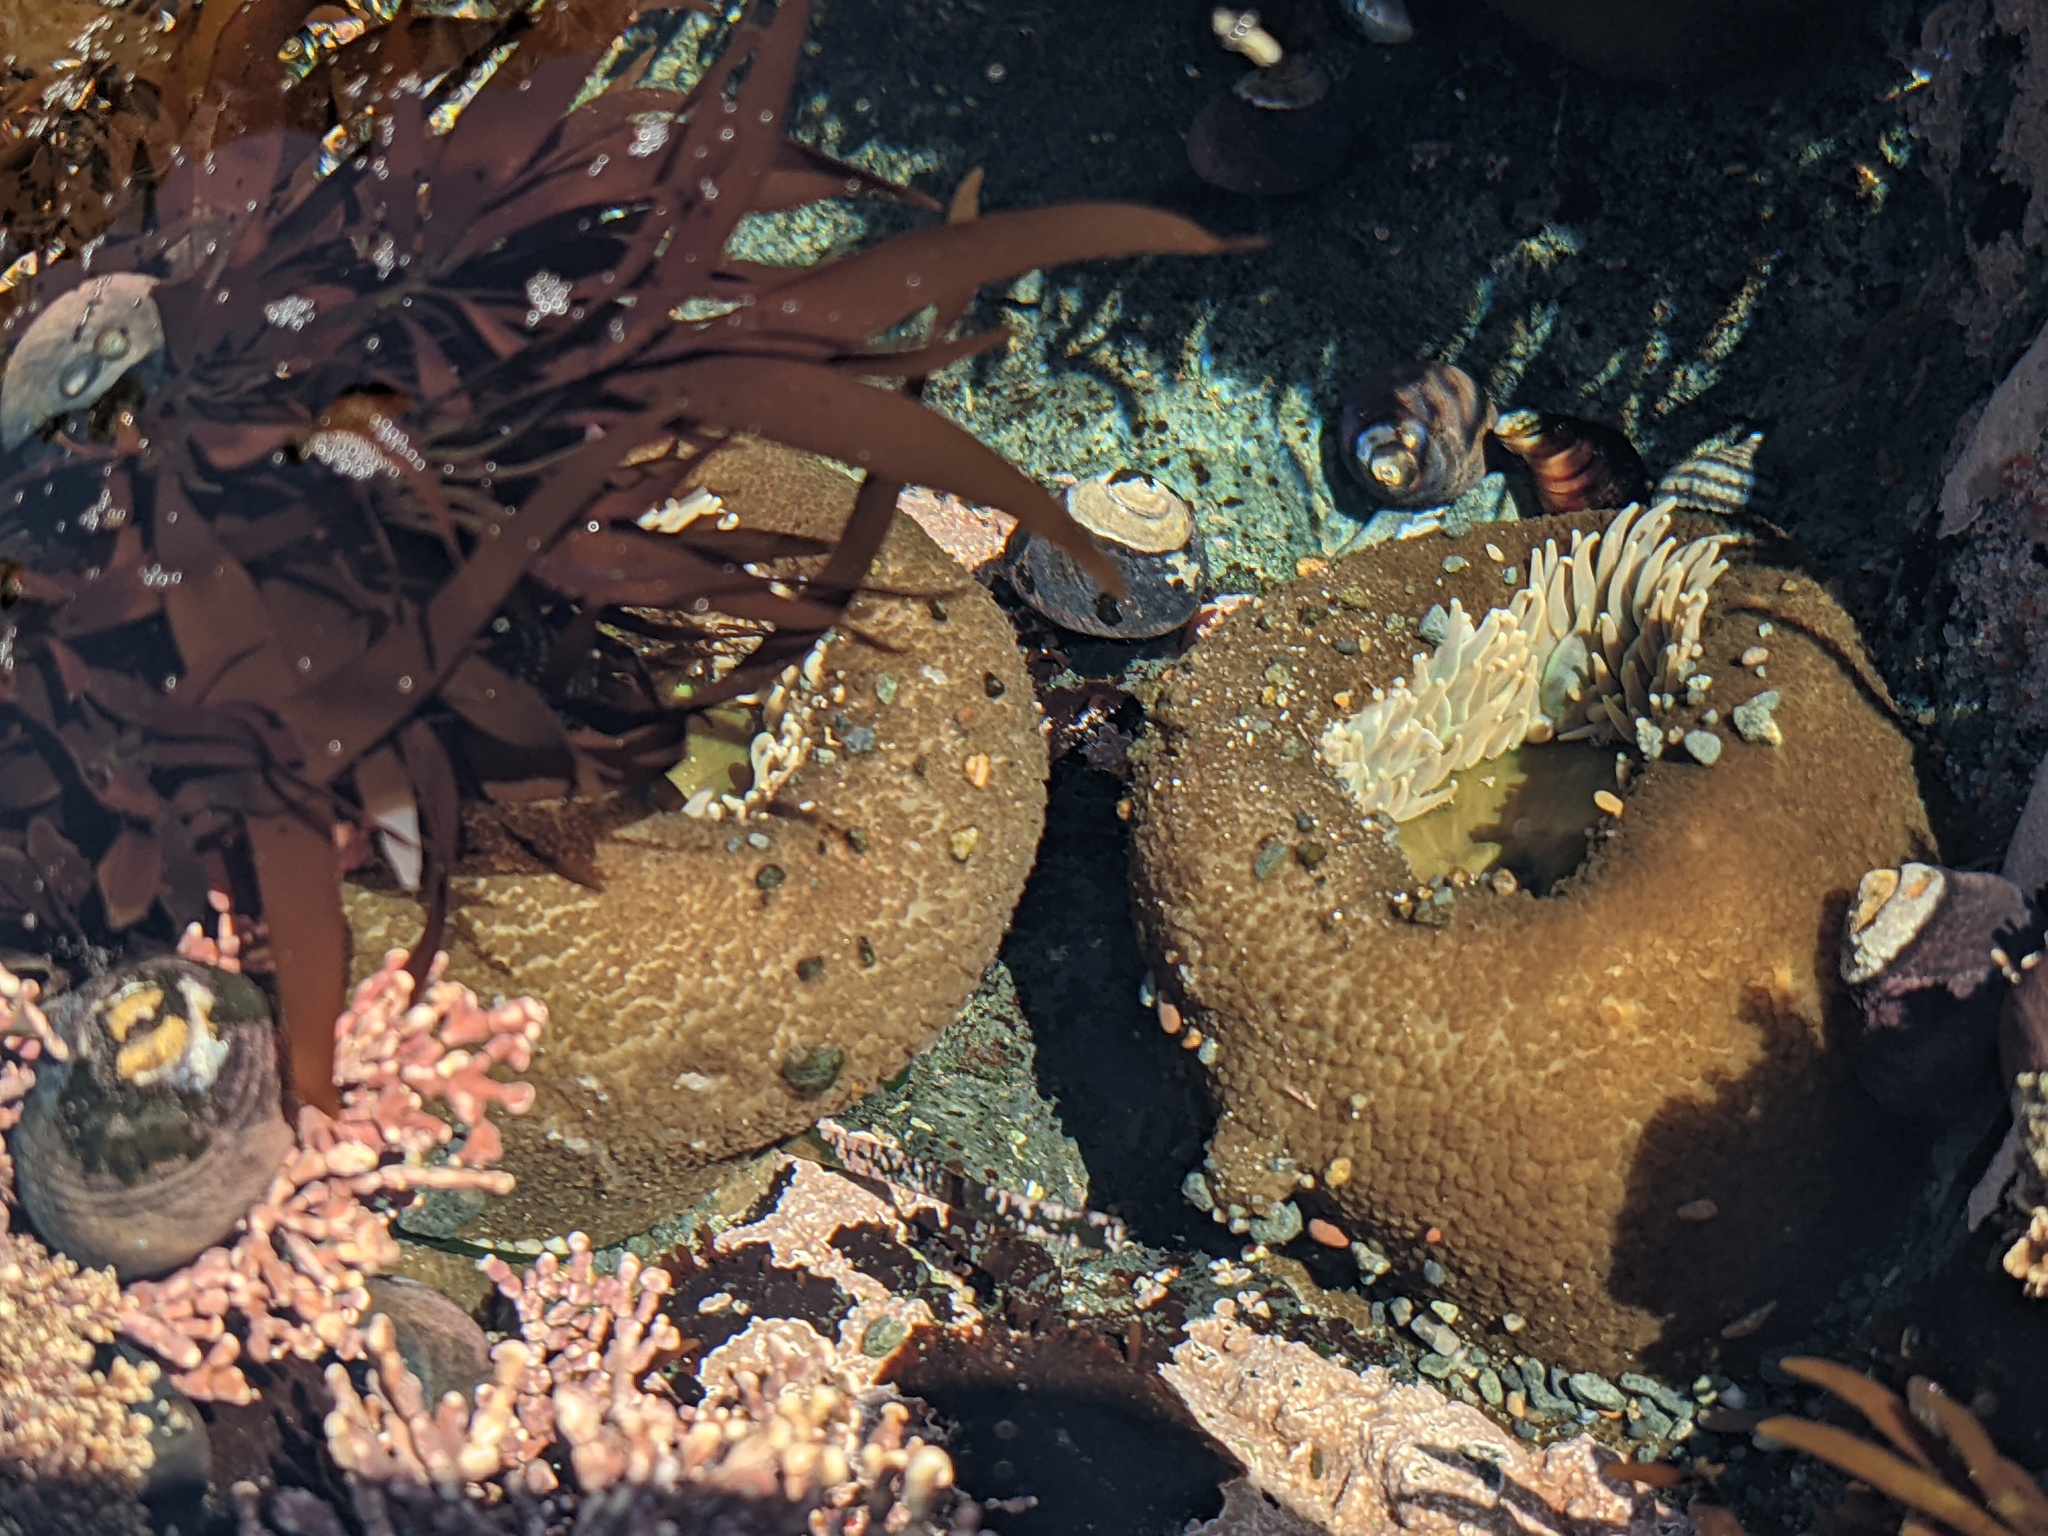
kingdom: Animalia
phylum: Cnidaria
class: Anthozoa
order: Actiniaria
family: Actiniidae
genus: Anthopleura
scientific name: Anthopleura xanthogrammica
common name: Giant green anemone
